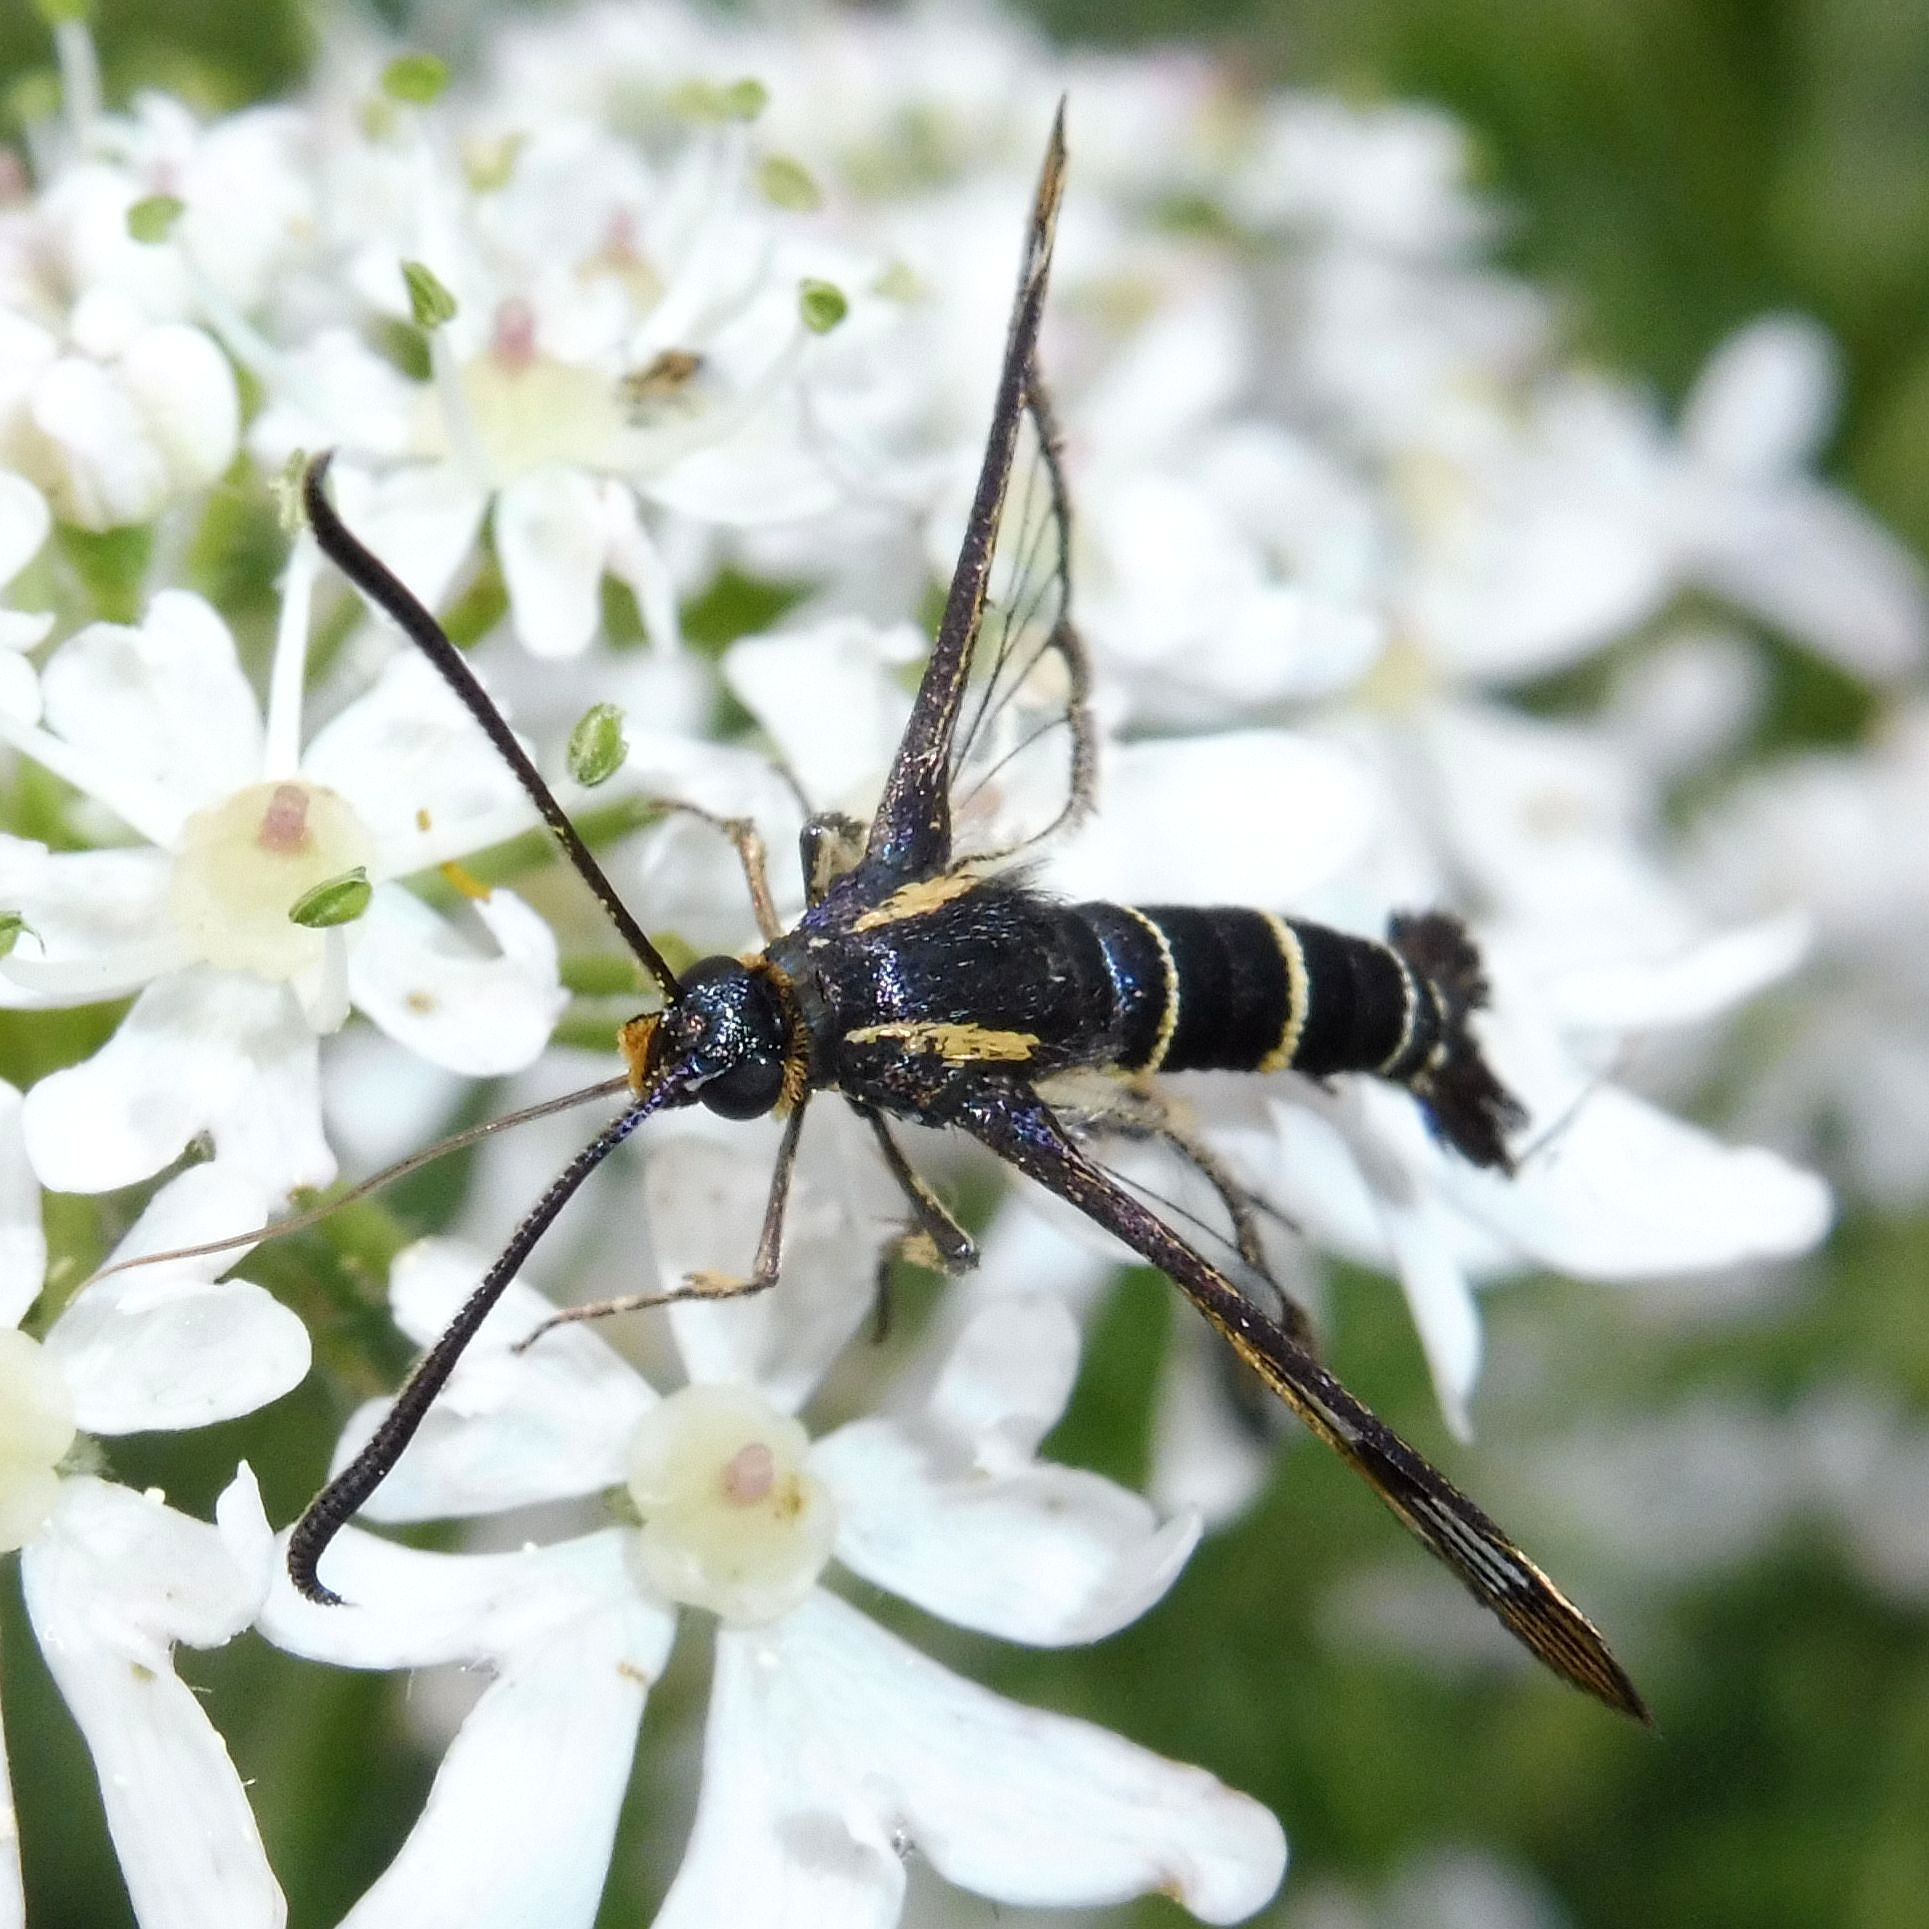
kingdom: Animalia
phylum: Arthropoda
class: Insecta
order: Lepidoptera
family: Sesiidae
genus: Synanthedon
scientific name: Synanthedon tipuliformis
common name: Currant clearwing
